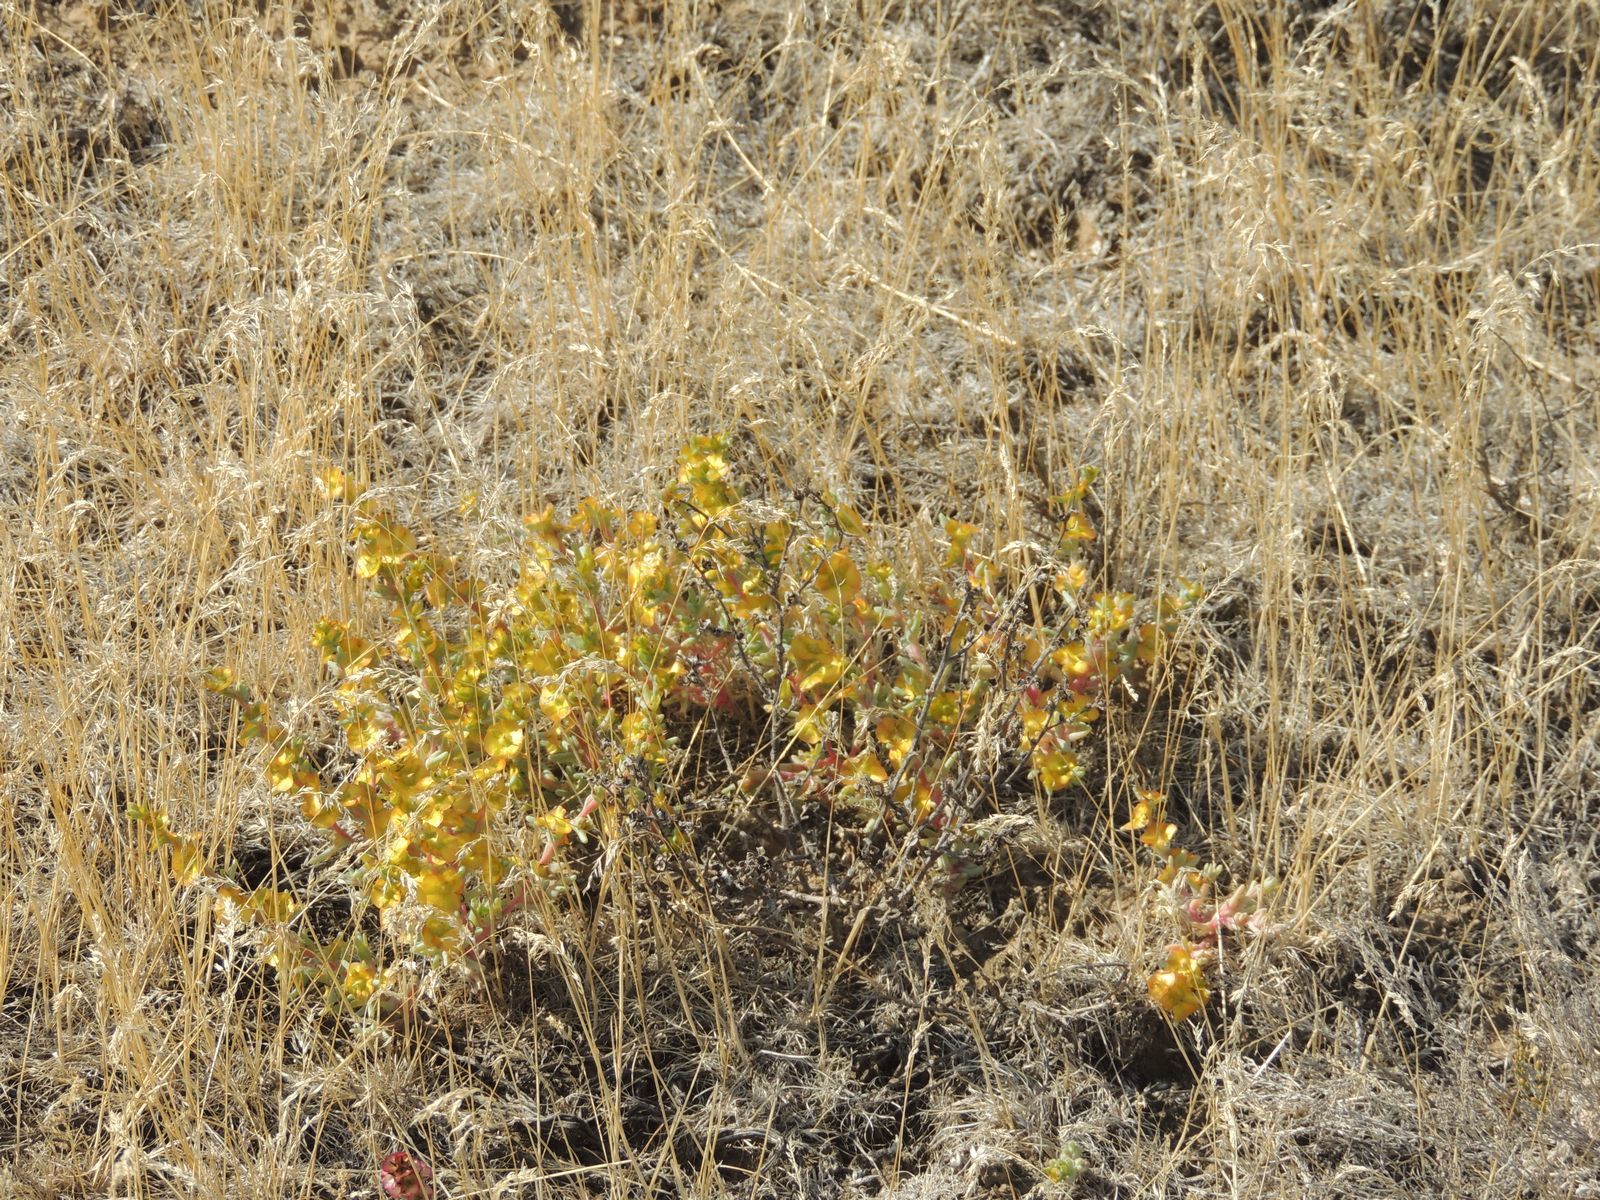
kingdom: Plantae
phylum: Tracheophyta
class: Magnoliopsida
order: Caryophyllales
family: Amaranthaceae
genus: Climacoptera
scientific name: Climacoptera crassa
